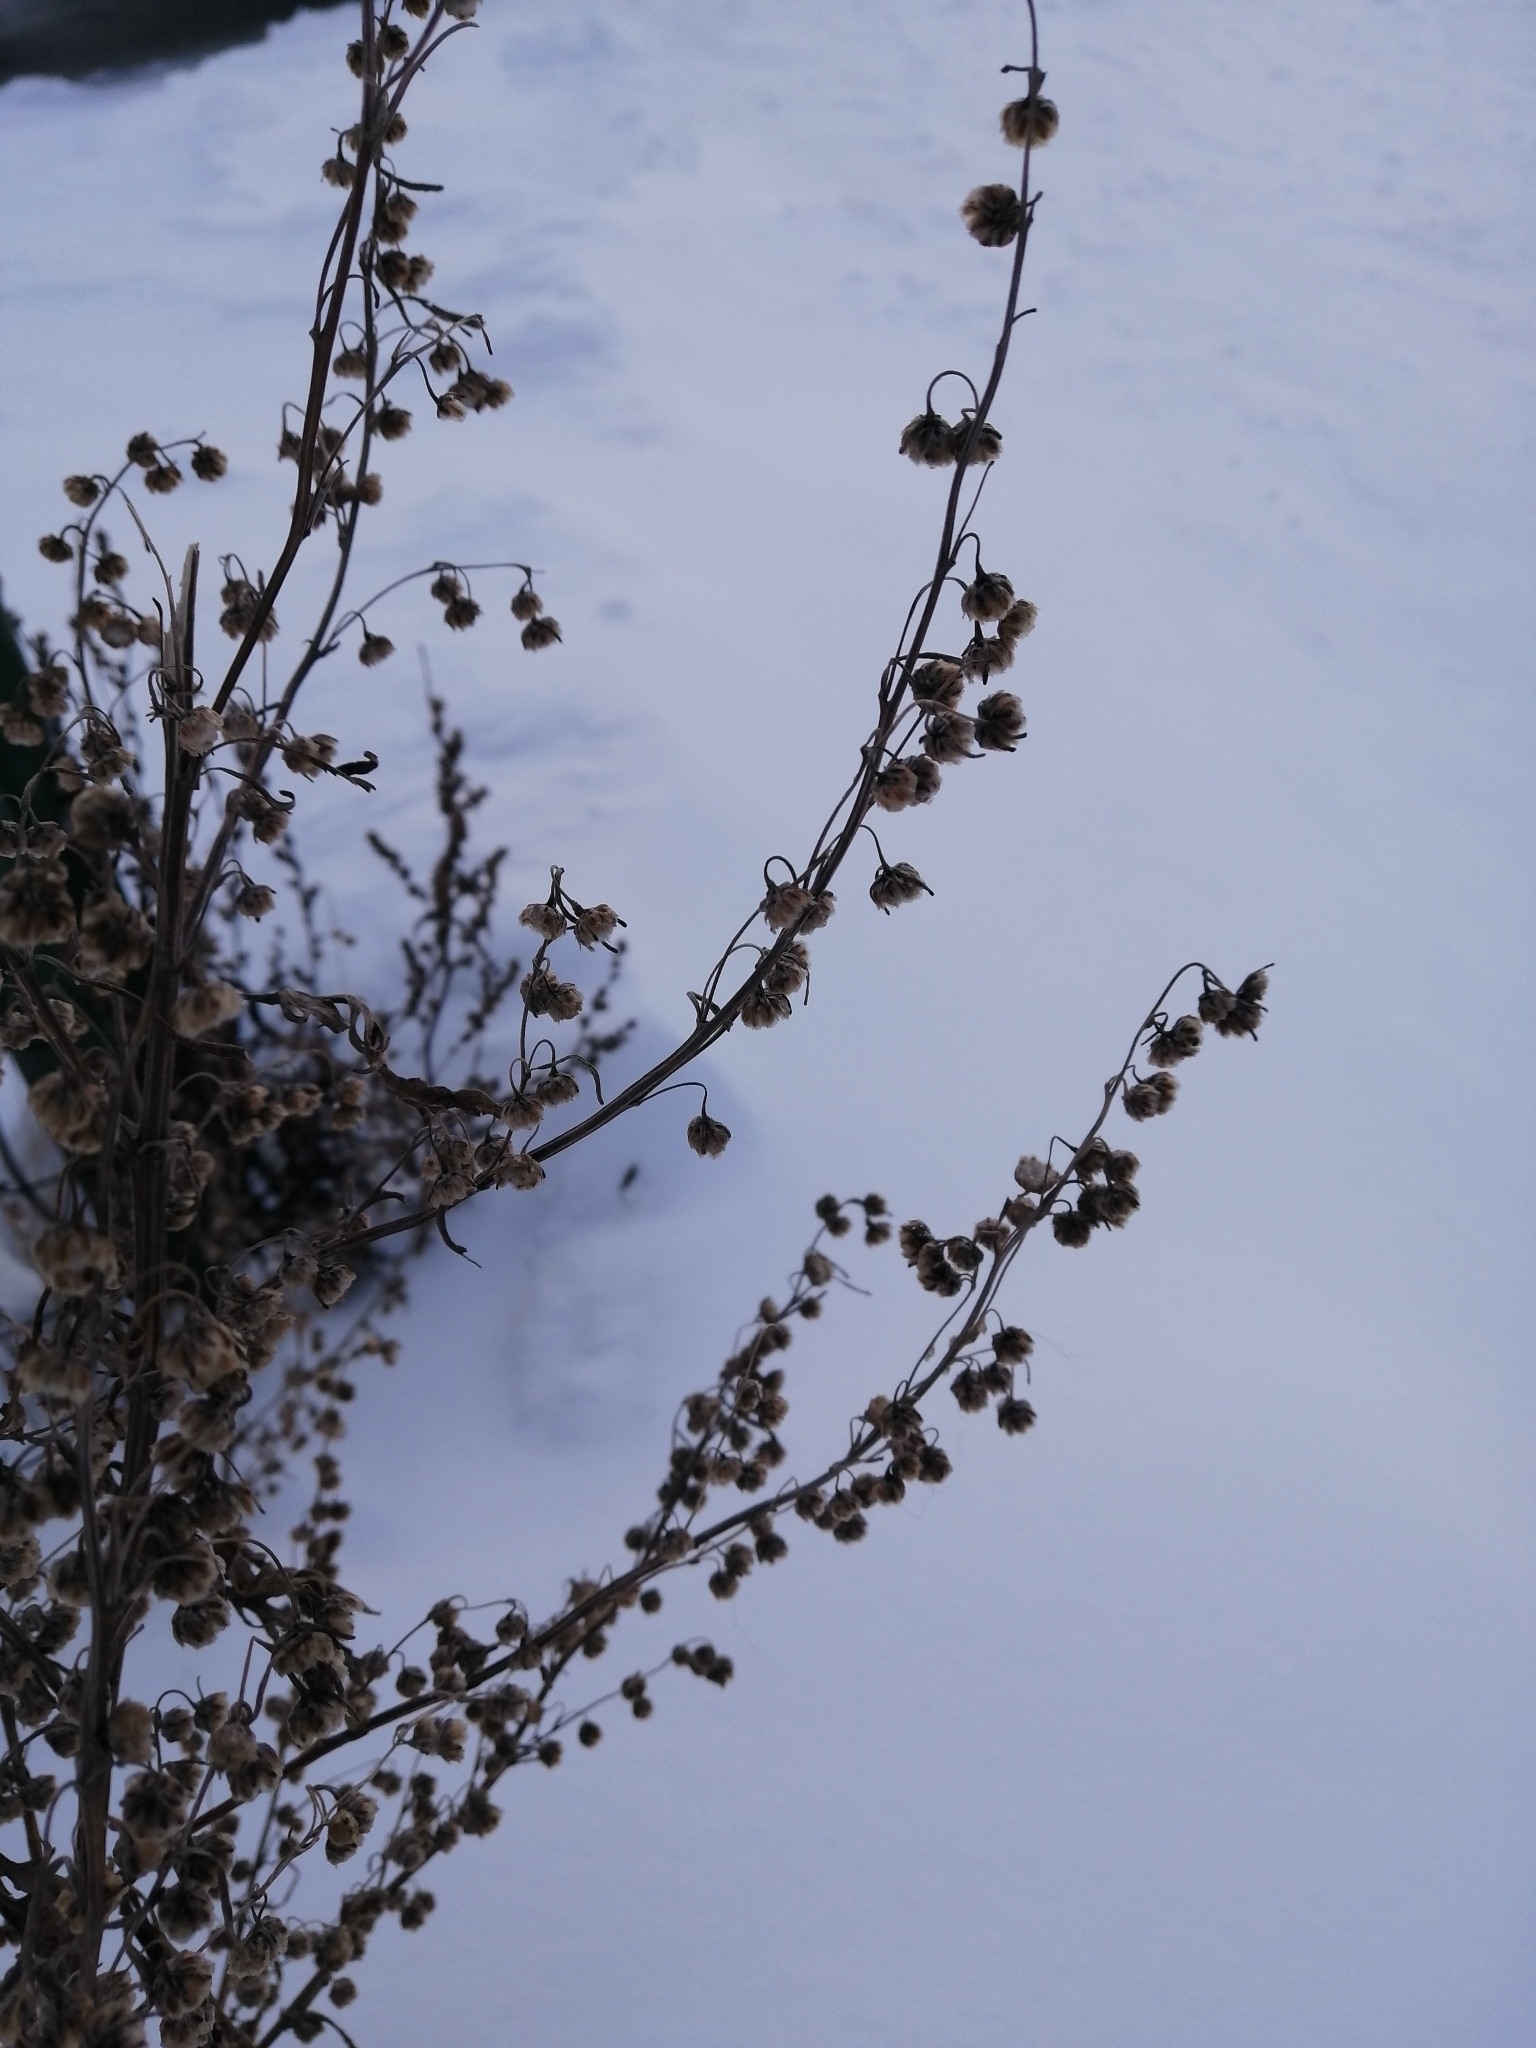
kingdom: Plantae
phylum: Tracheophyta
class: Magnoliopsida
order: Asterales
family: Asteraceae
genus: Artemisia
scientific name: Artemisia absinthium
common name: Wormwood
